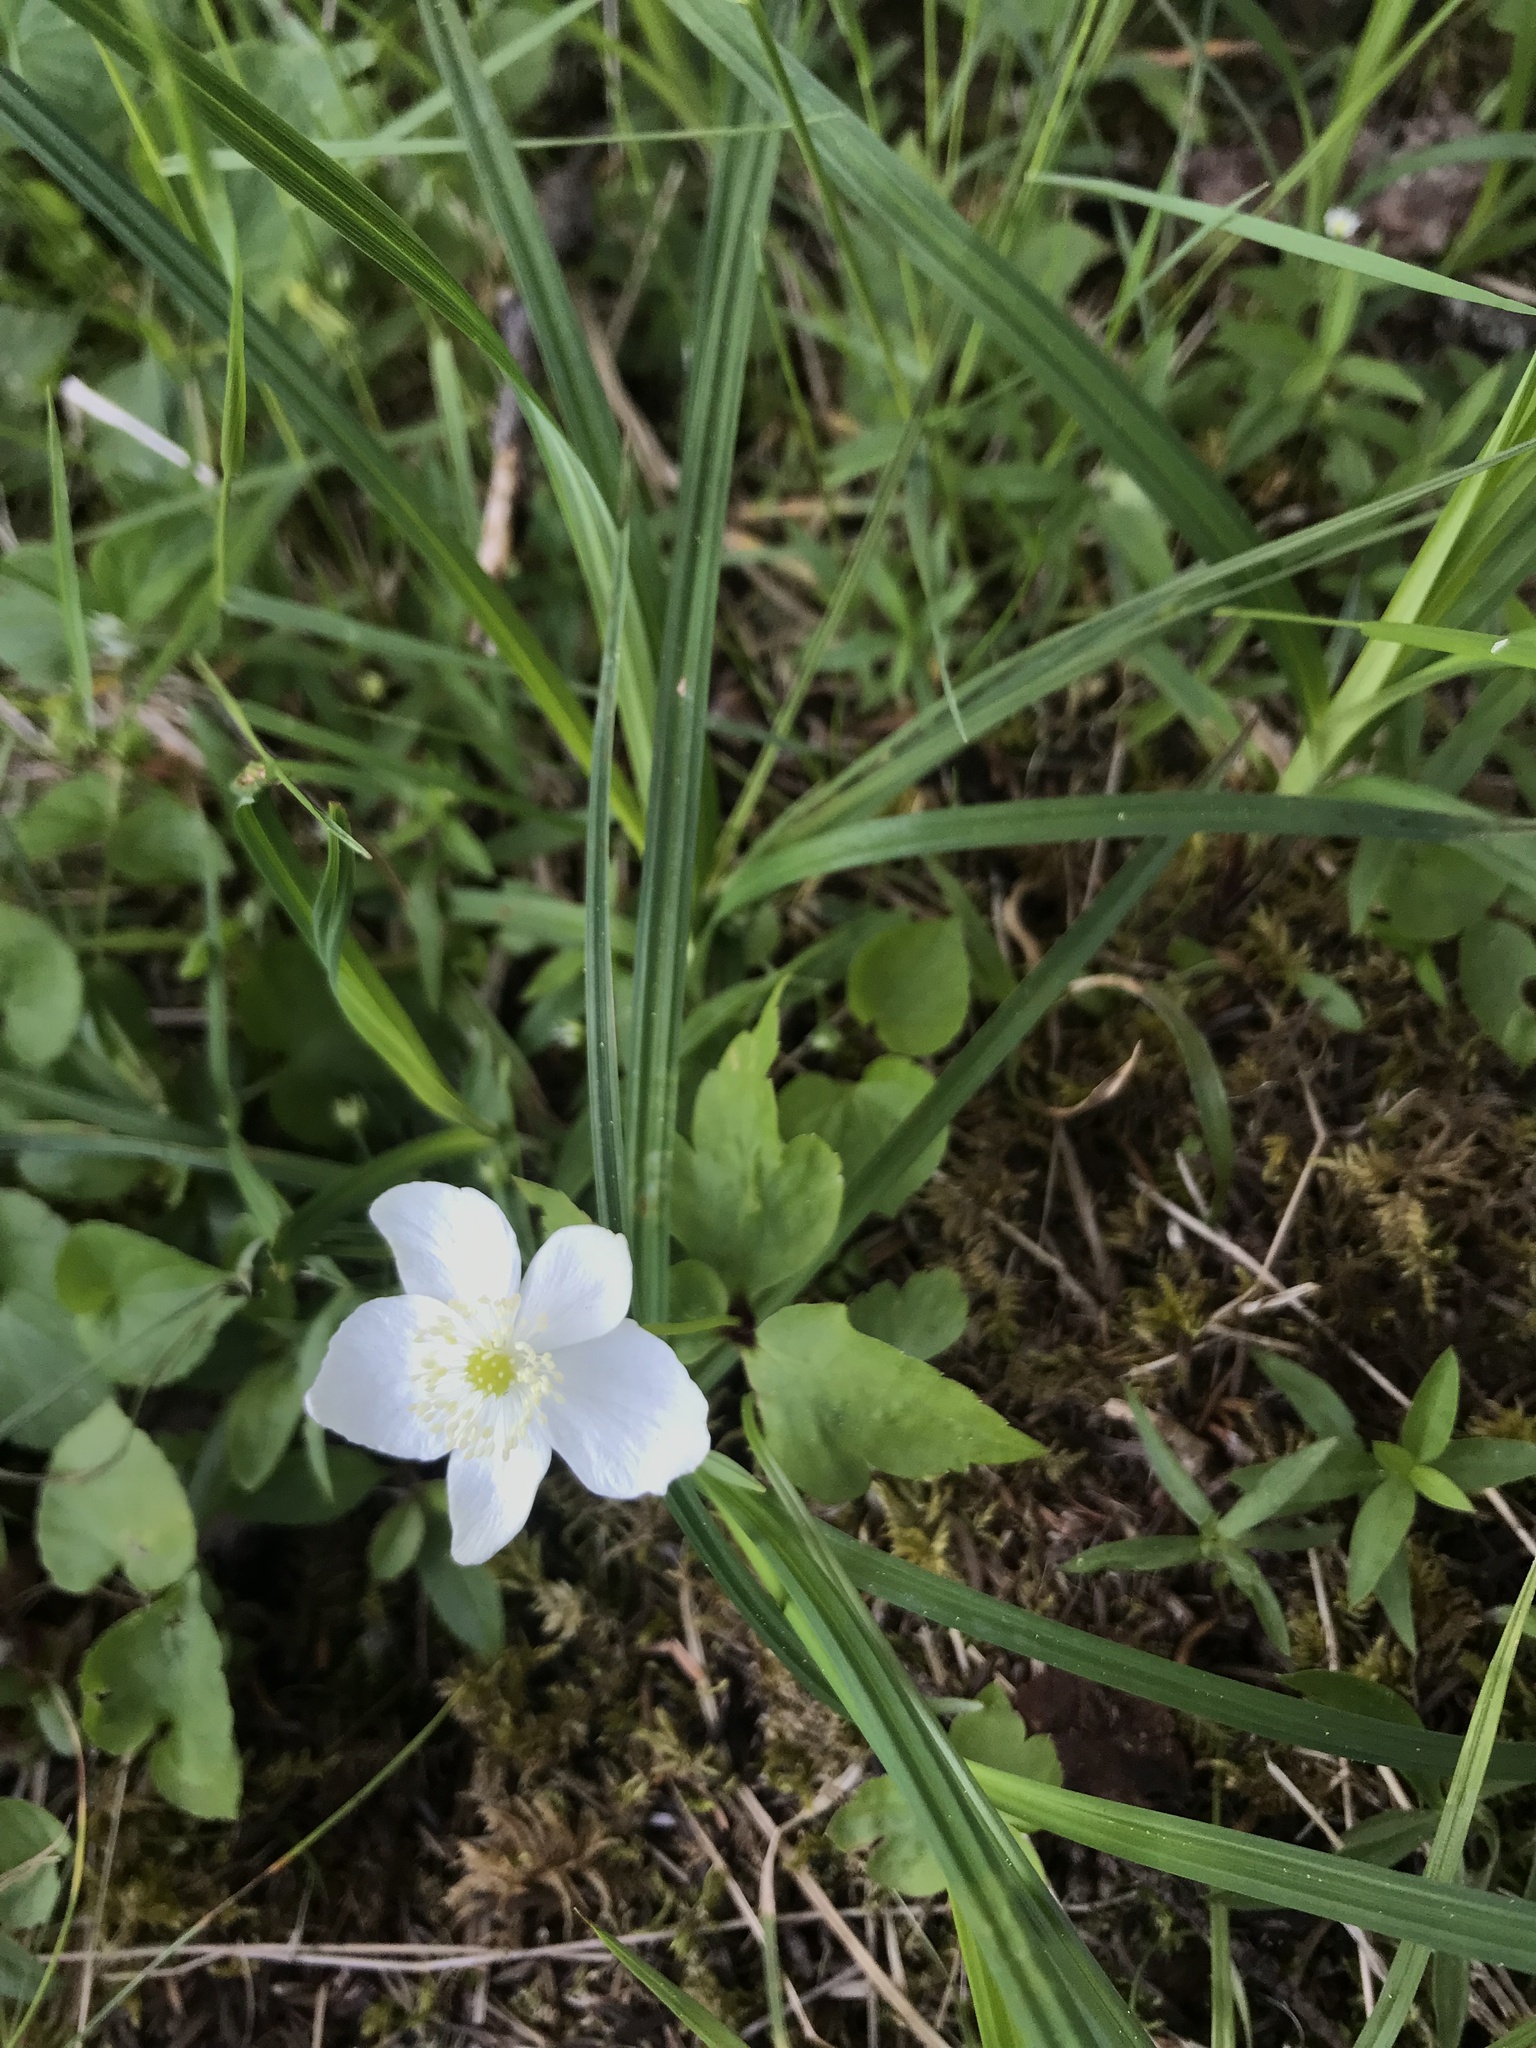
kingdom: Plantae
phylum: Tracheophyta
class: Magnoliopsida
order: Ranunculales
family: Ranunculaceae
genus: Anemonastrum
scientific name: Anemonastrum deltoideum
